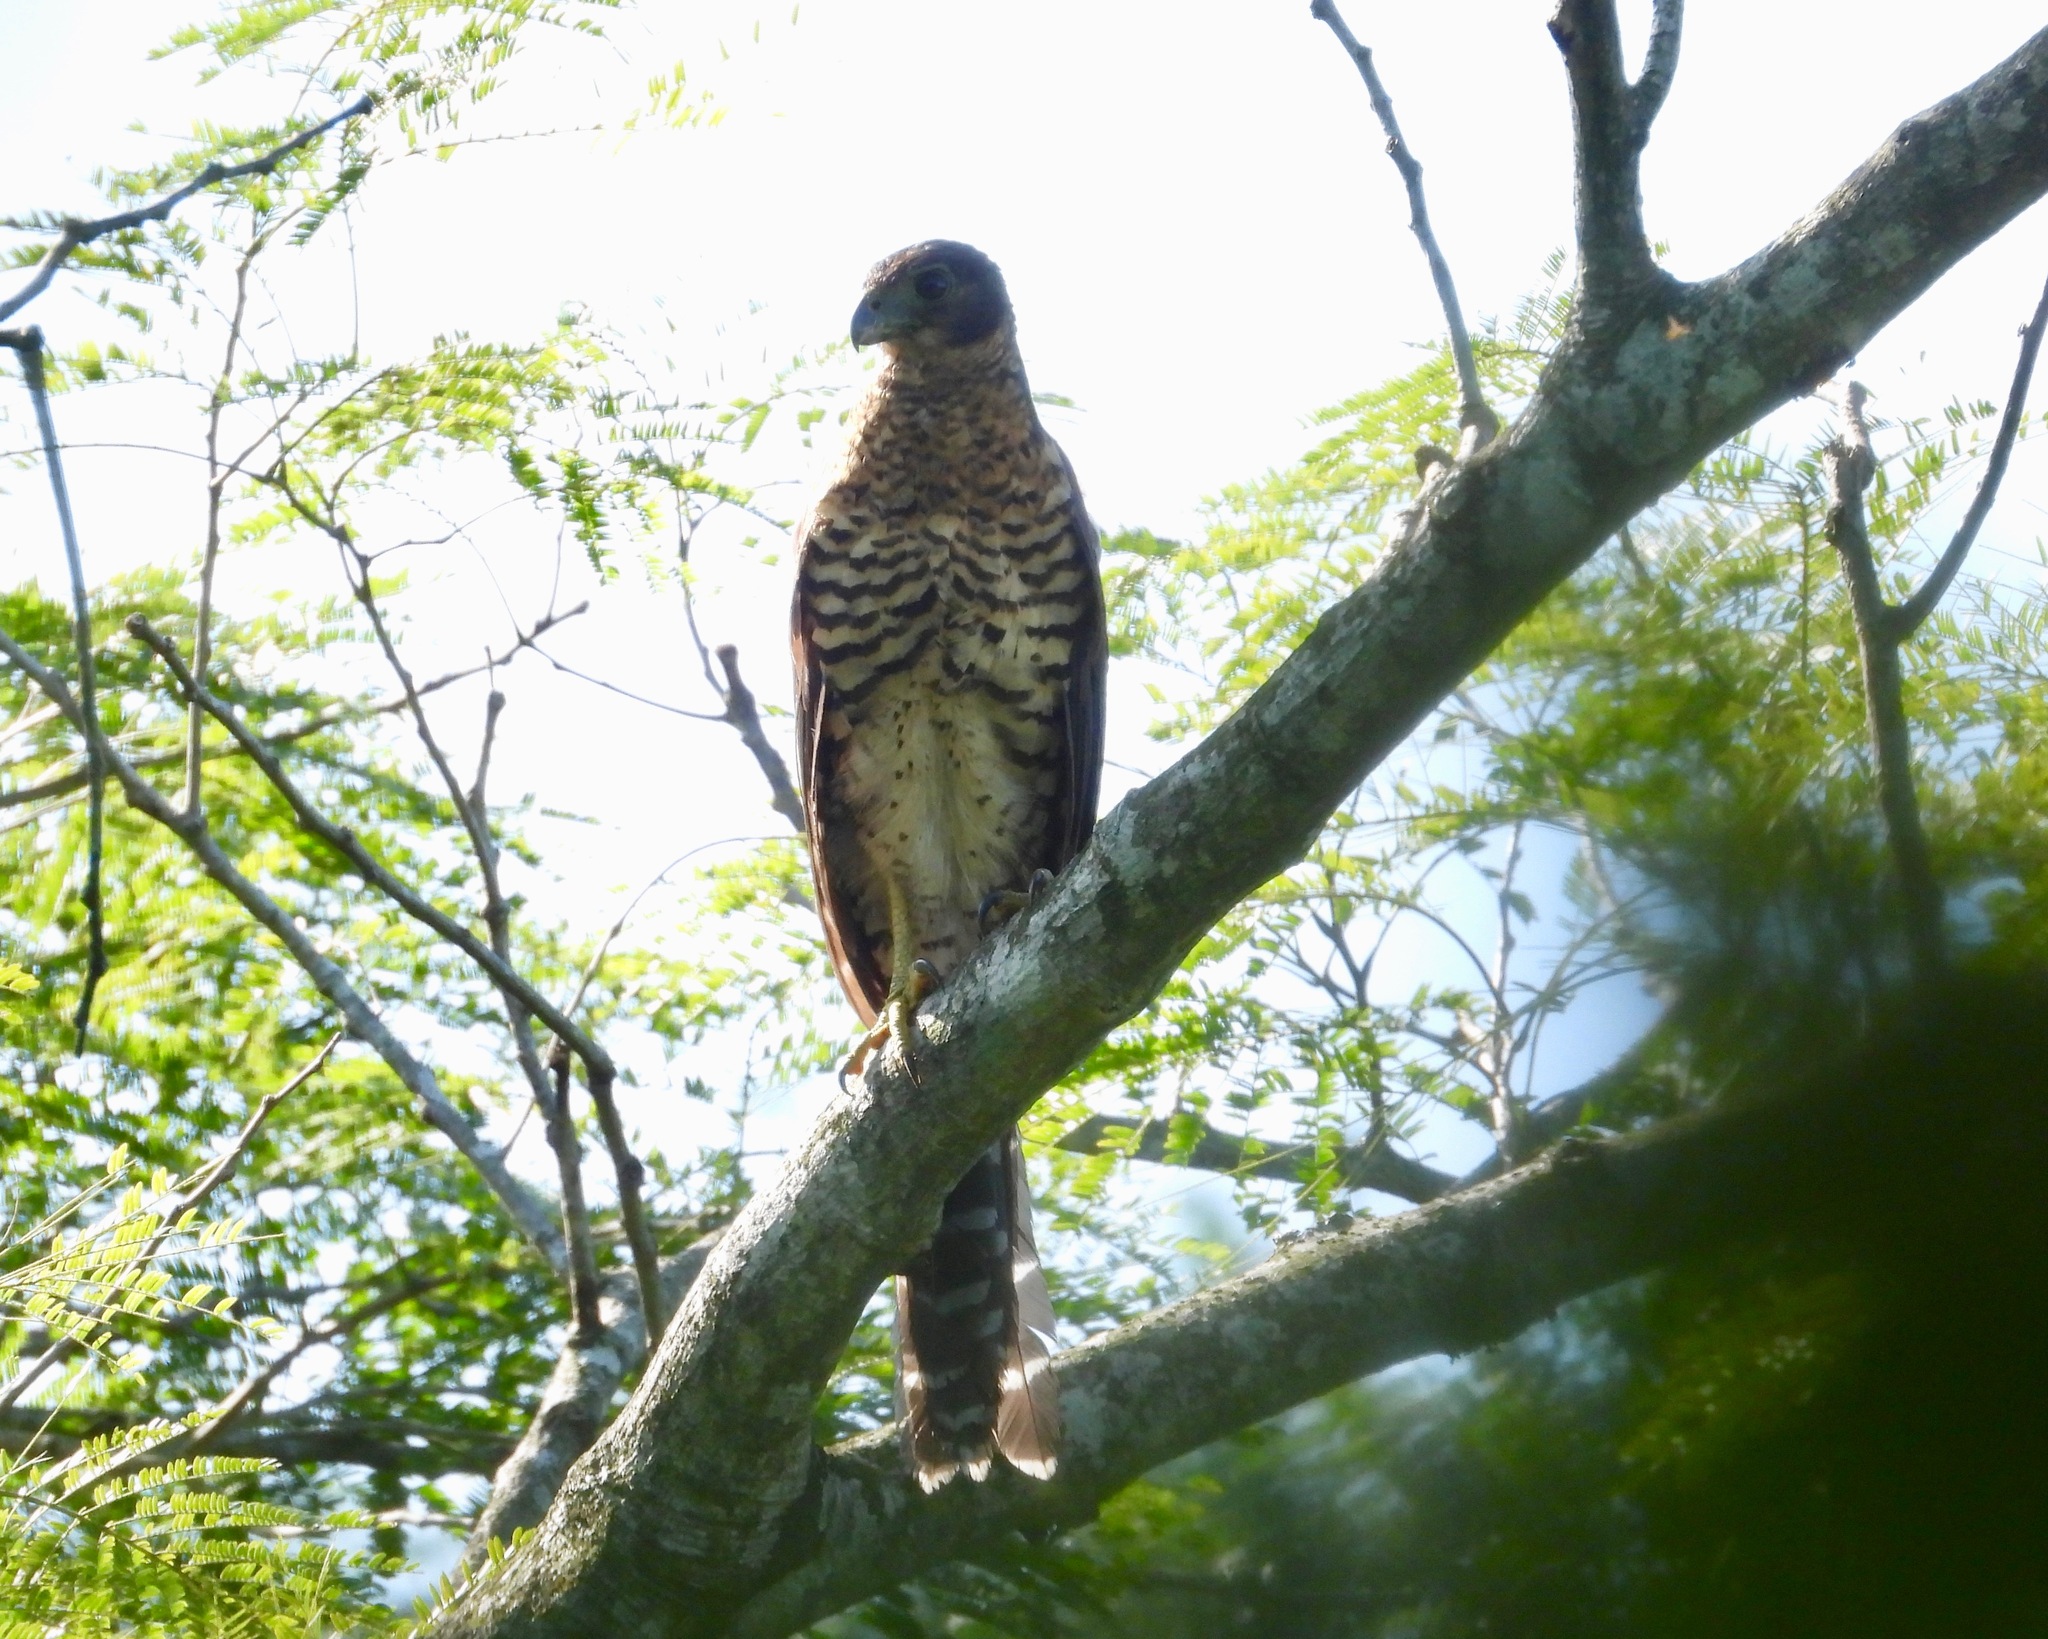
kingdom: Animalia
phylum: Chordata
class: Aves
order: Falconiformes
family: Falconidae
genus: Micrastur
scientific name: Micrastur semitorquatus
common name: Collared forest-falcon
